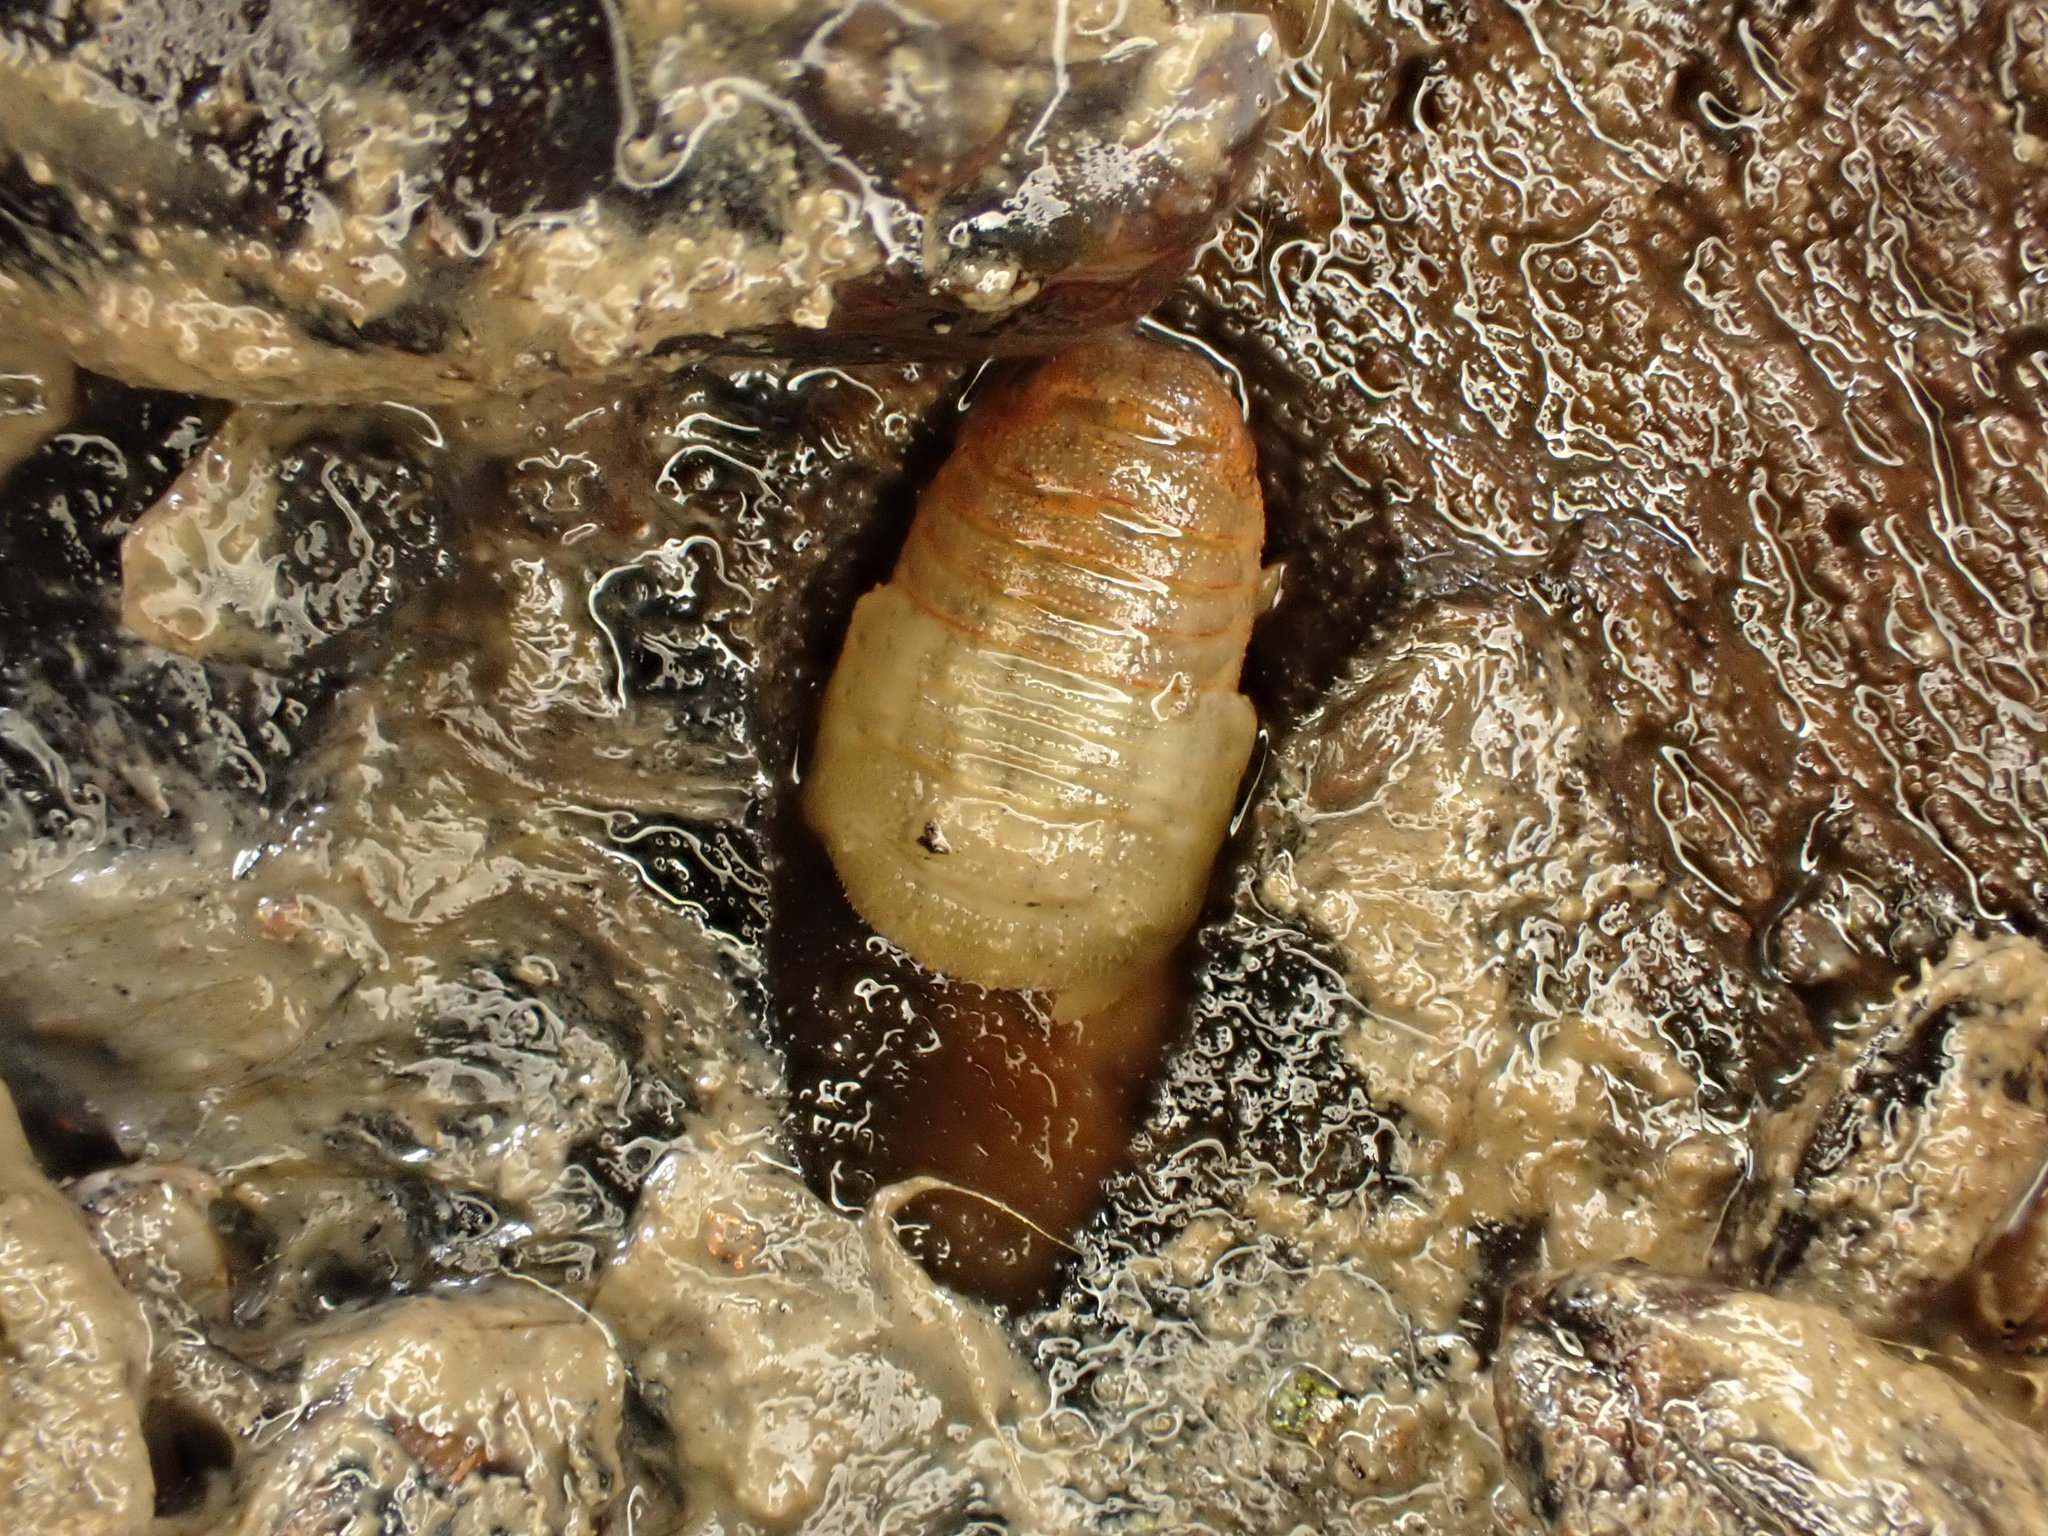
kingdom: Animalia
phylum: Arthropoda
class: Malacostraca
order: Isopoda
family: Sphaeromatidae
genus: Sphaeroma
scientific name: Sphaeroma quoianum
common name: Isopod
